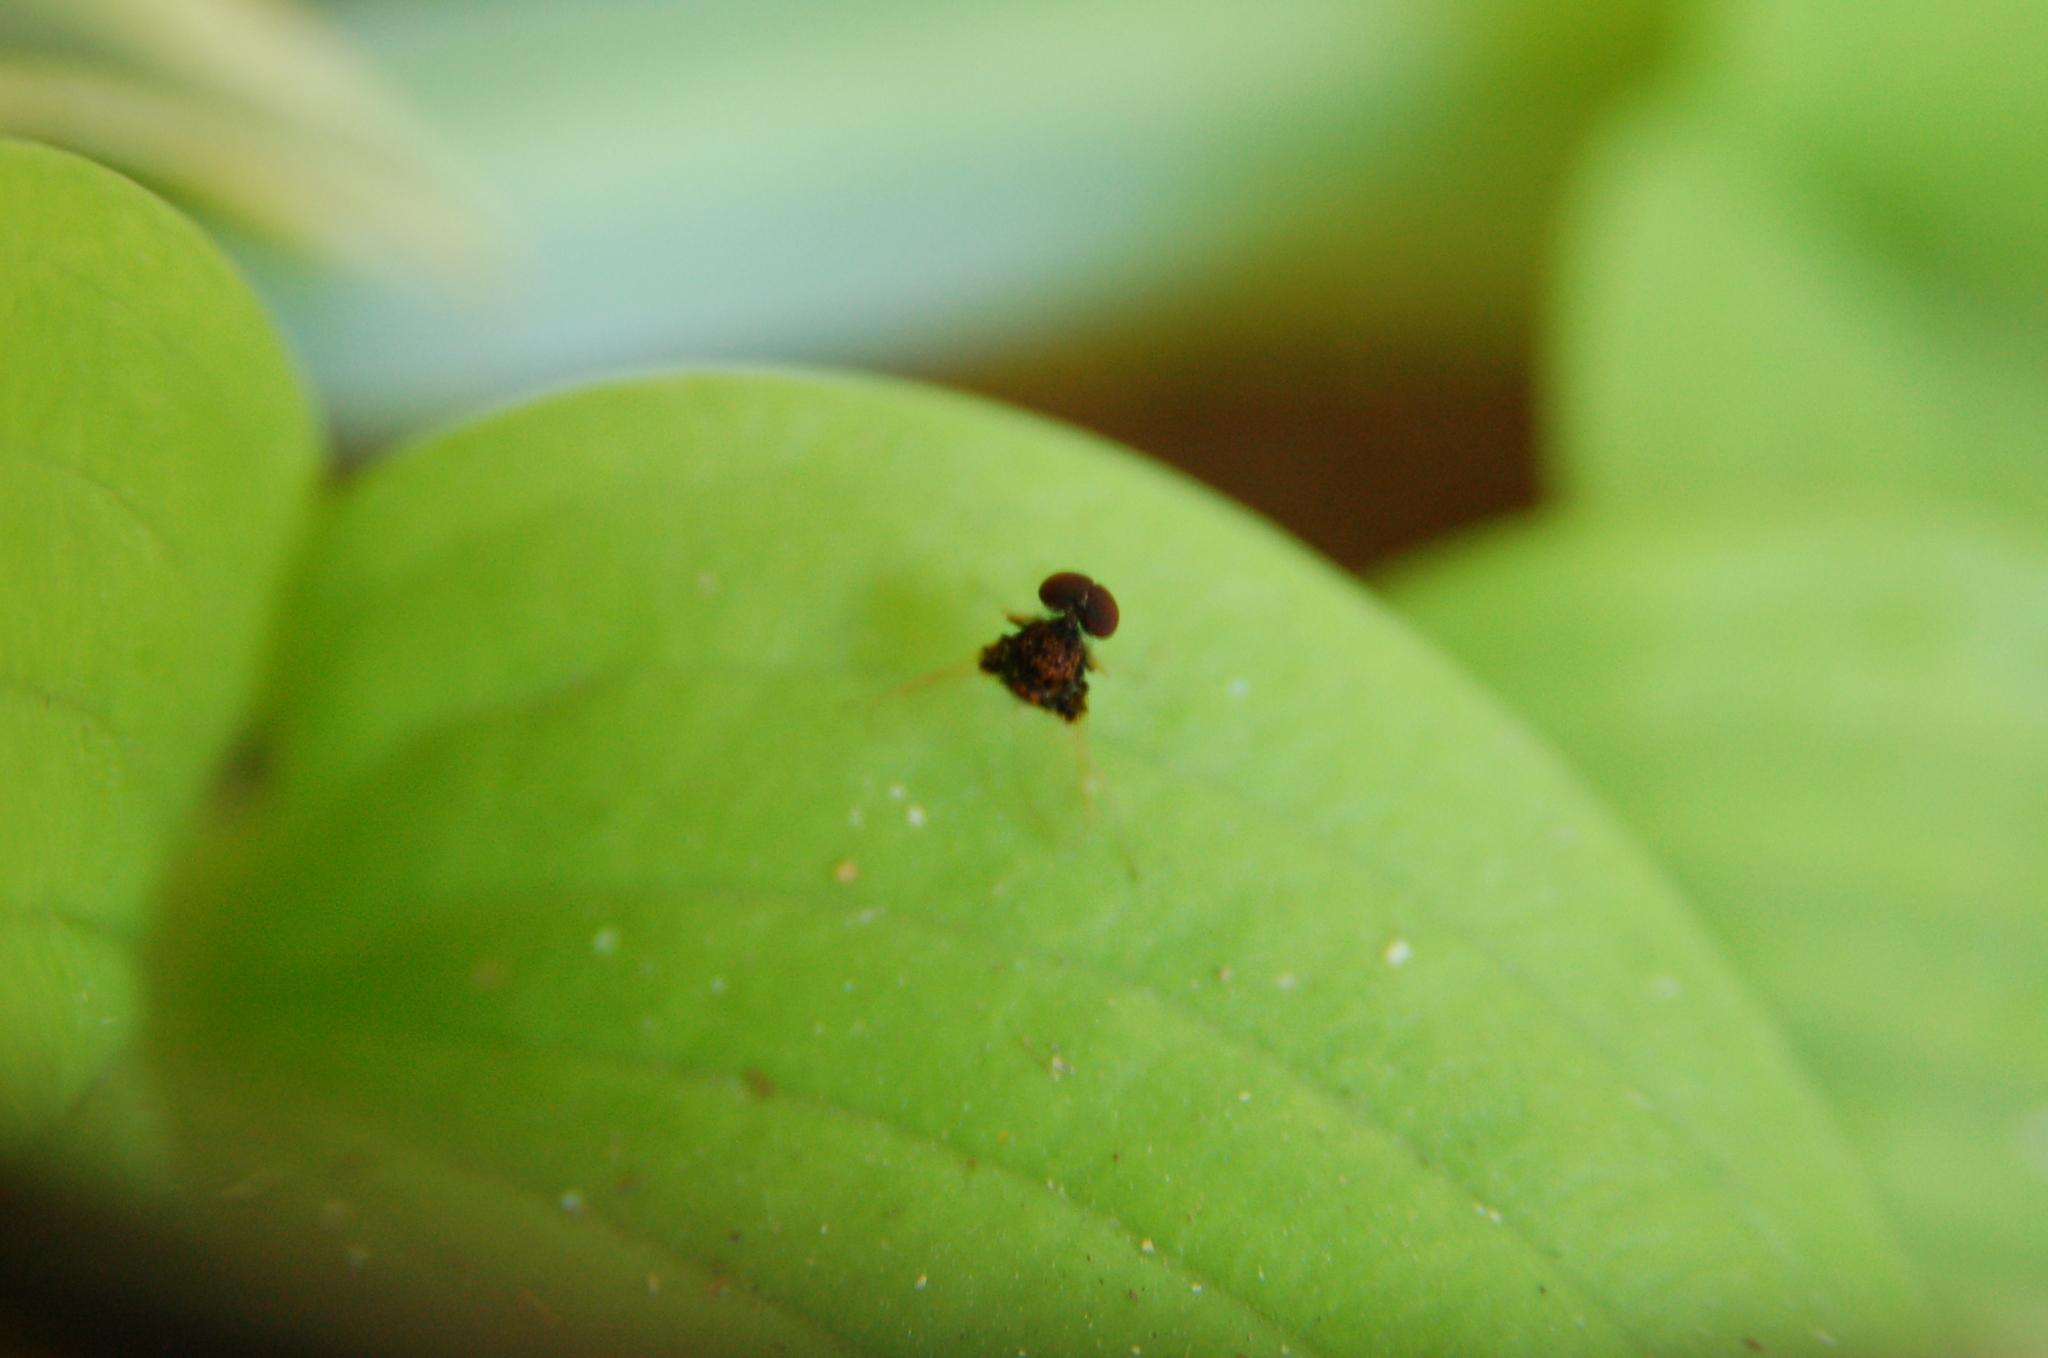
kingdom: Animalia
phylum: Arthropoda
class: Insecta
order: Diptera
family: Rhagionidae
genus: Chrysopilus
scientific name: Chrysopilus basilaris
